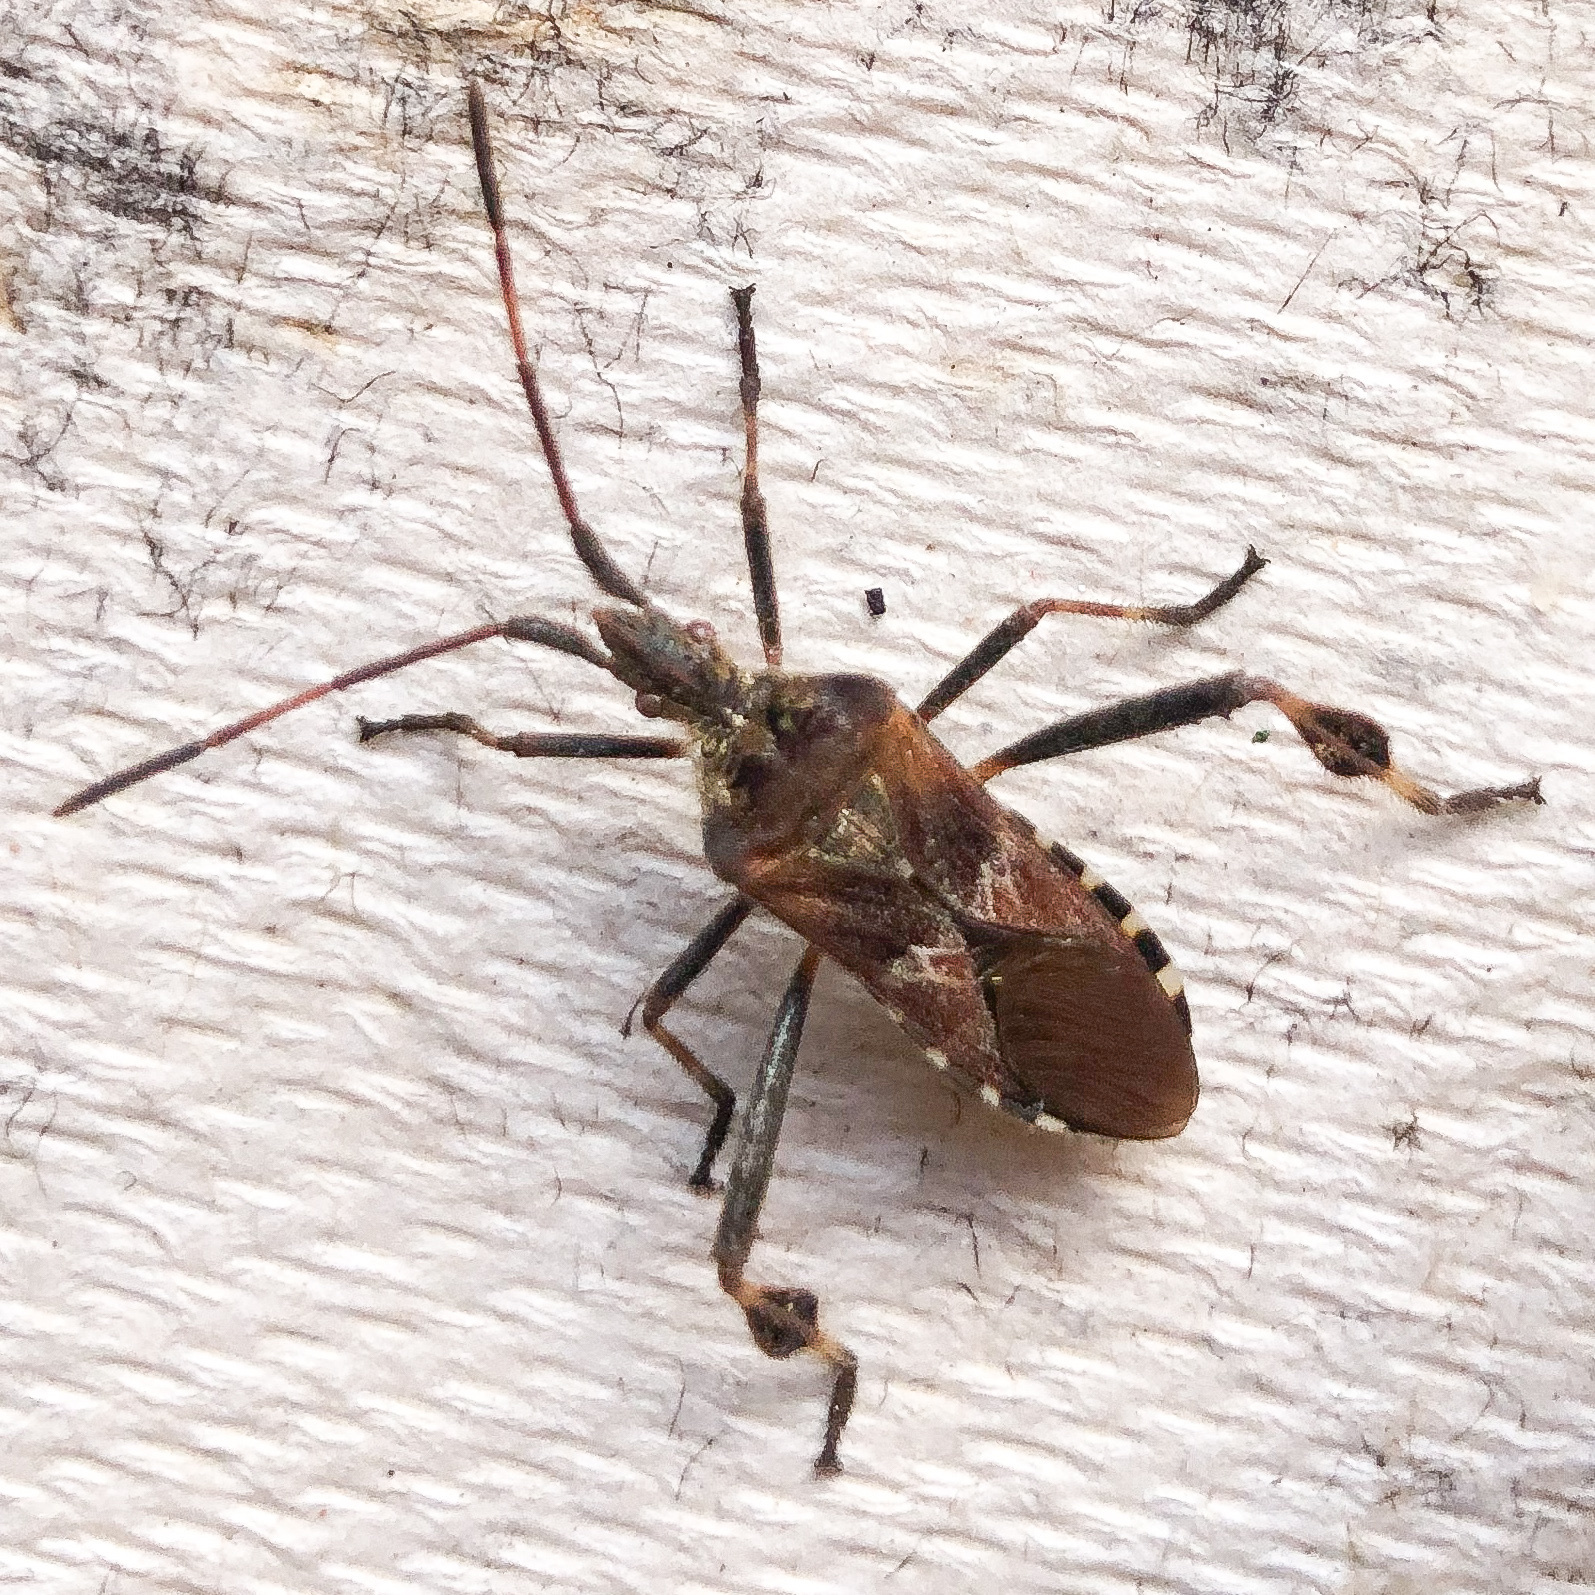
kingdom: Animalia
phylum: Arthropoda
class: Insecta
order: Hemiptera
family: Coreidae
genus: Leptoglossus
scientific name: Leptoglossus occidentalis
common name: Western conifer-seed bug
